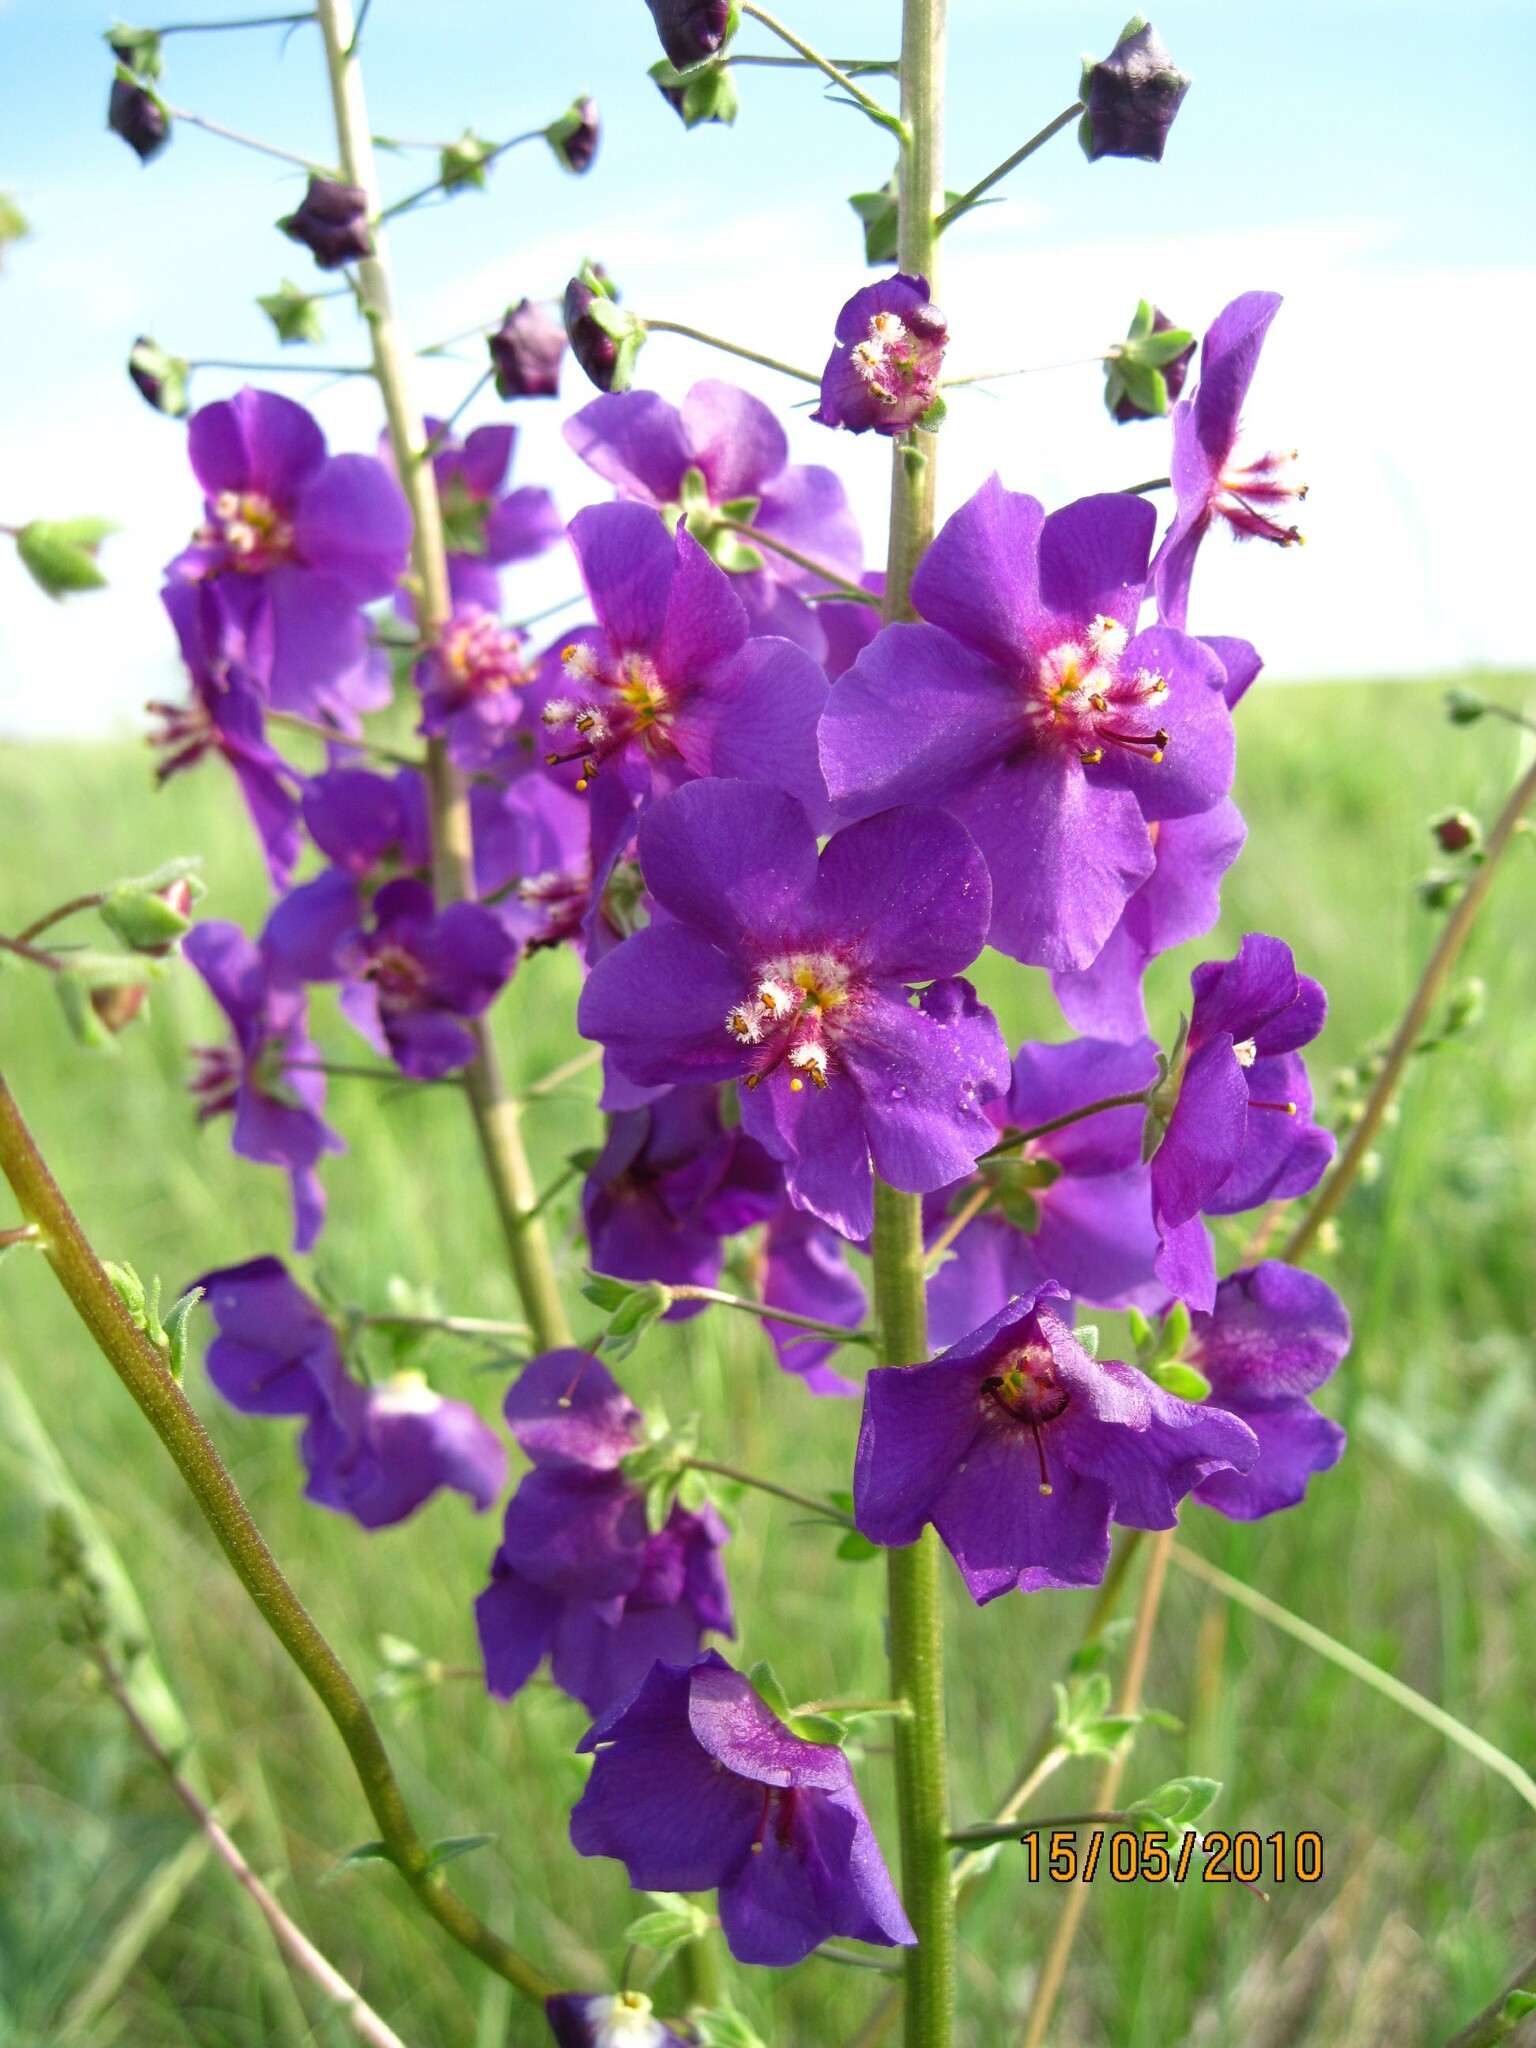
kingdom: Plantae
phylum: Tracheophyta
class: Magnoliopsida
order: Lamiales
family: Scrophulariaceae
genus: Verbascum
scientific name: Verbascum phoeniceum
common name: Purple mullein
